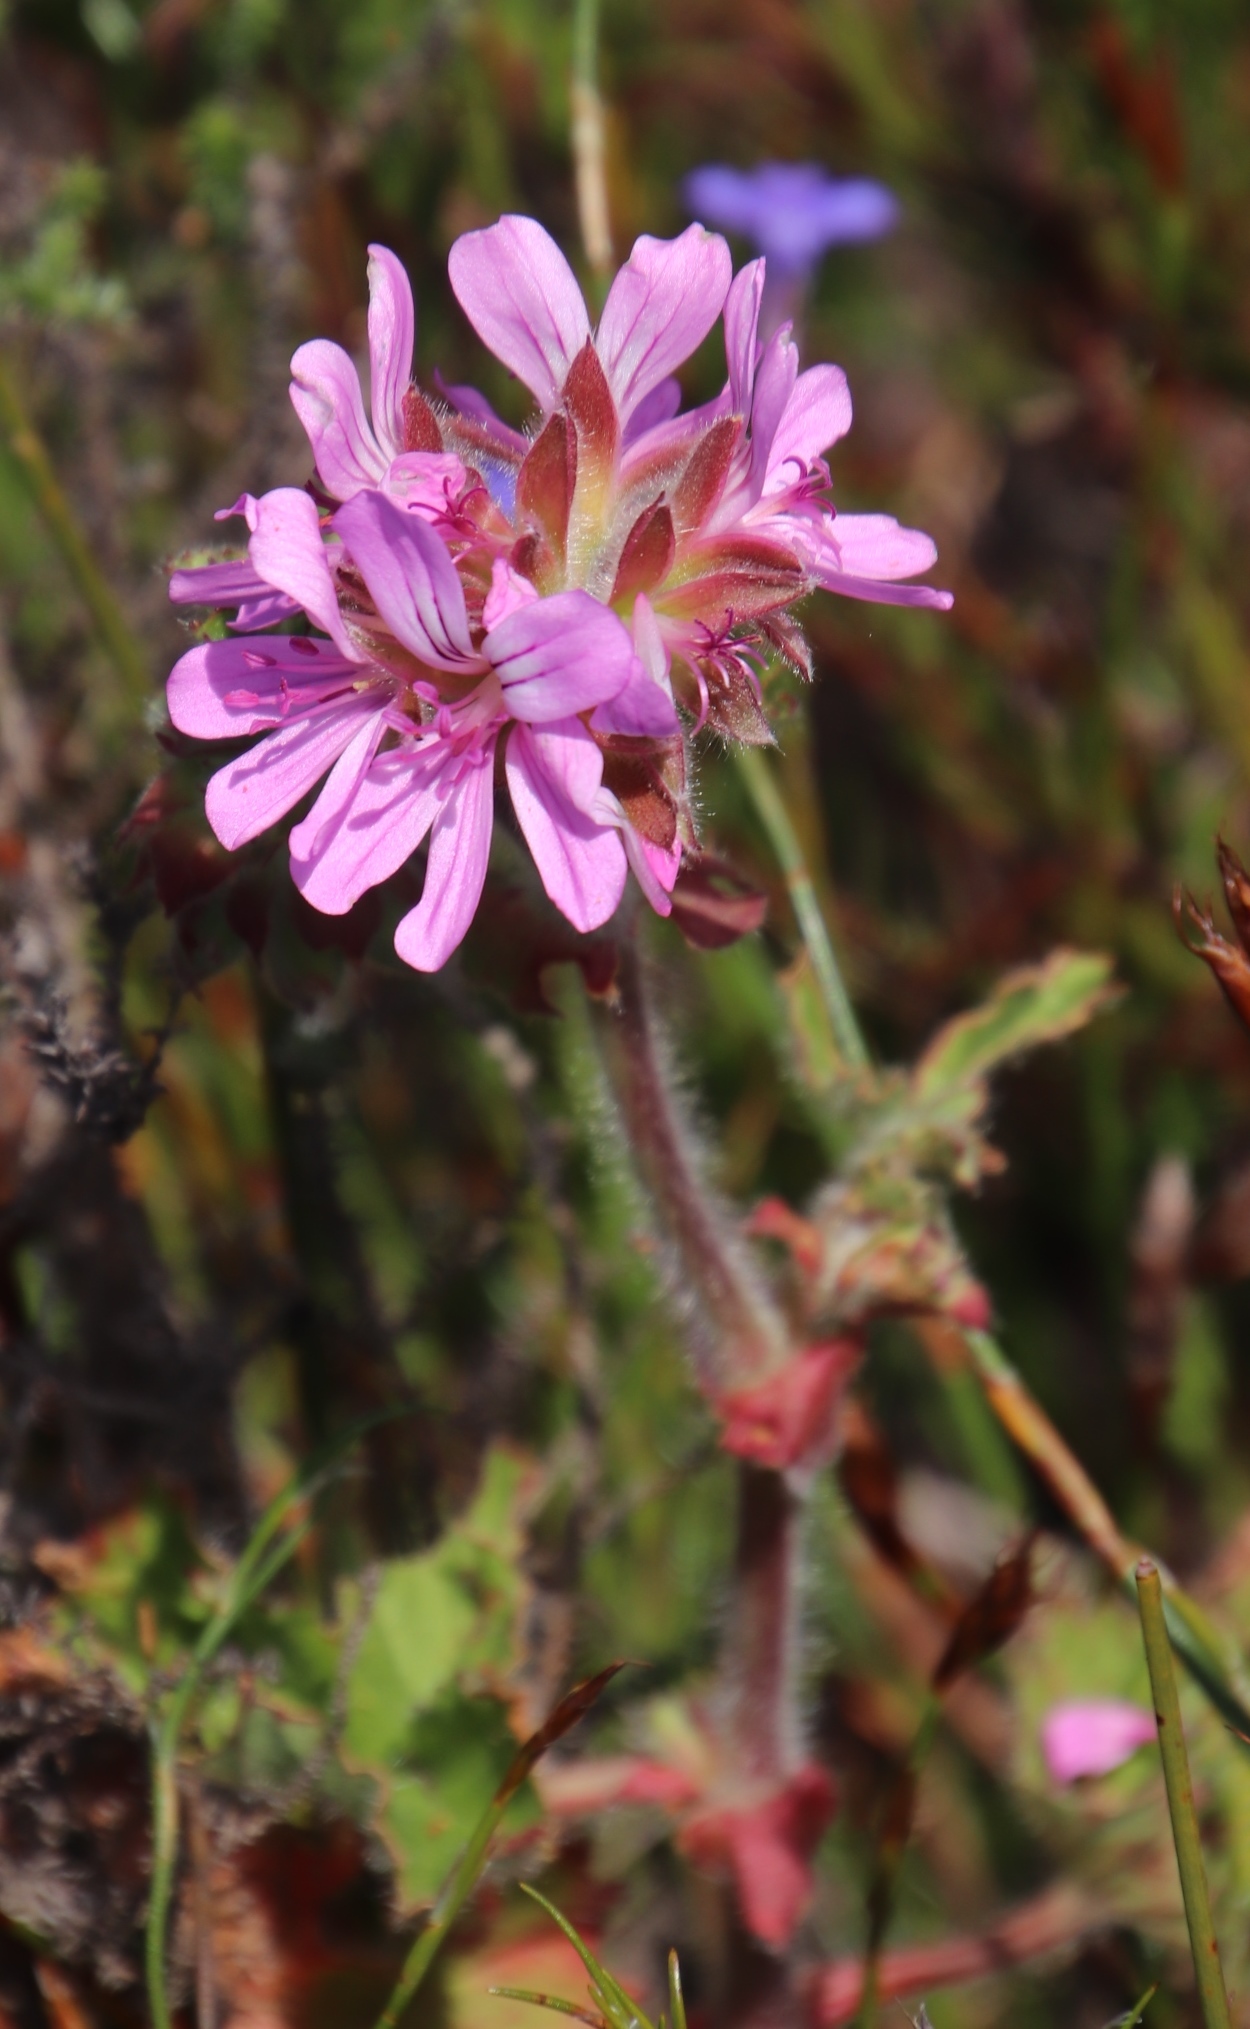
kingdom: Plantae
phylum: Tracheophyta
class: Magnoliopsida
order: Geraniales
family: Geraniaceae
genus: Pelargonium
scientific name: Pelargonium capitatum
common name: Rose scented geranium
